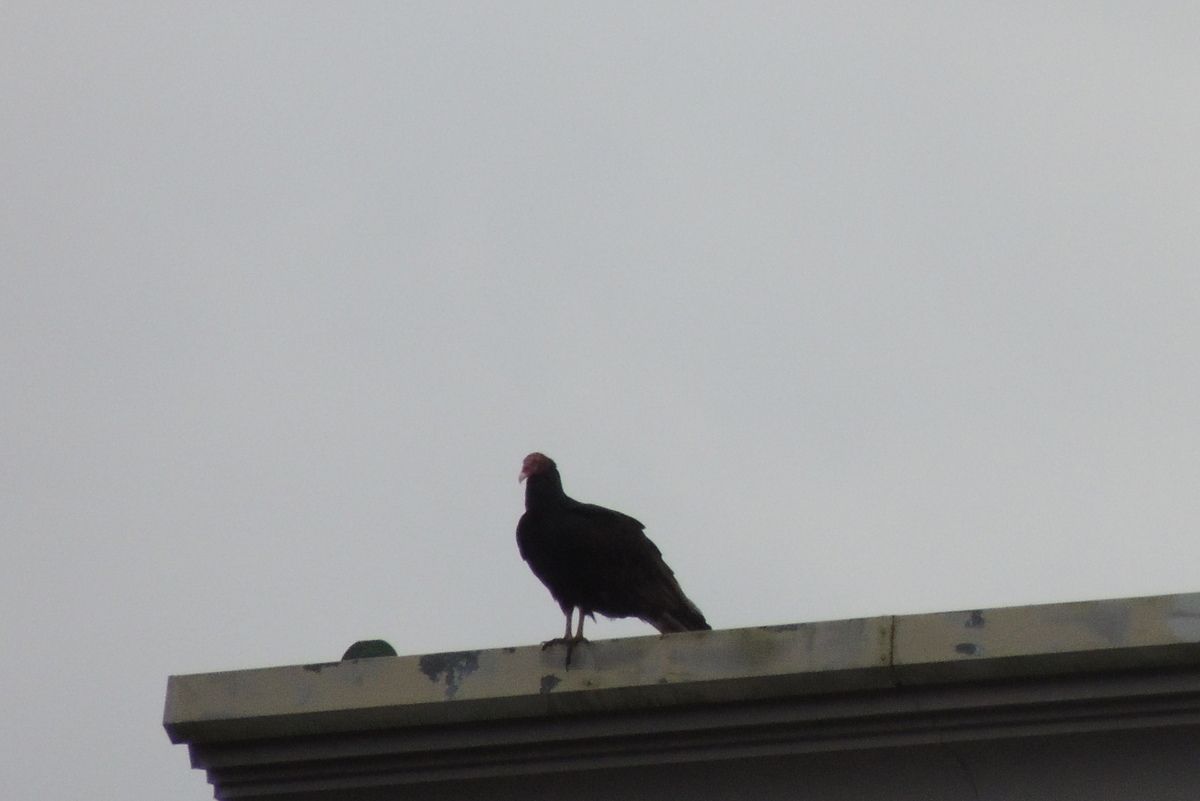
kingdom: Animalia
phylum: Chordata
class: Aves
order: Accipitriformes
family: Cathartidae
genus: Cathartes
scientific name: Cathartes aura
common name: Turkey vulture
